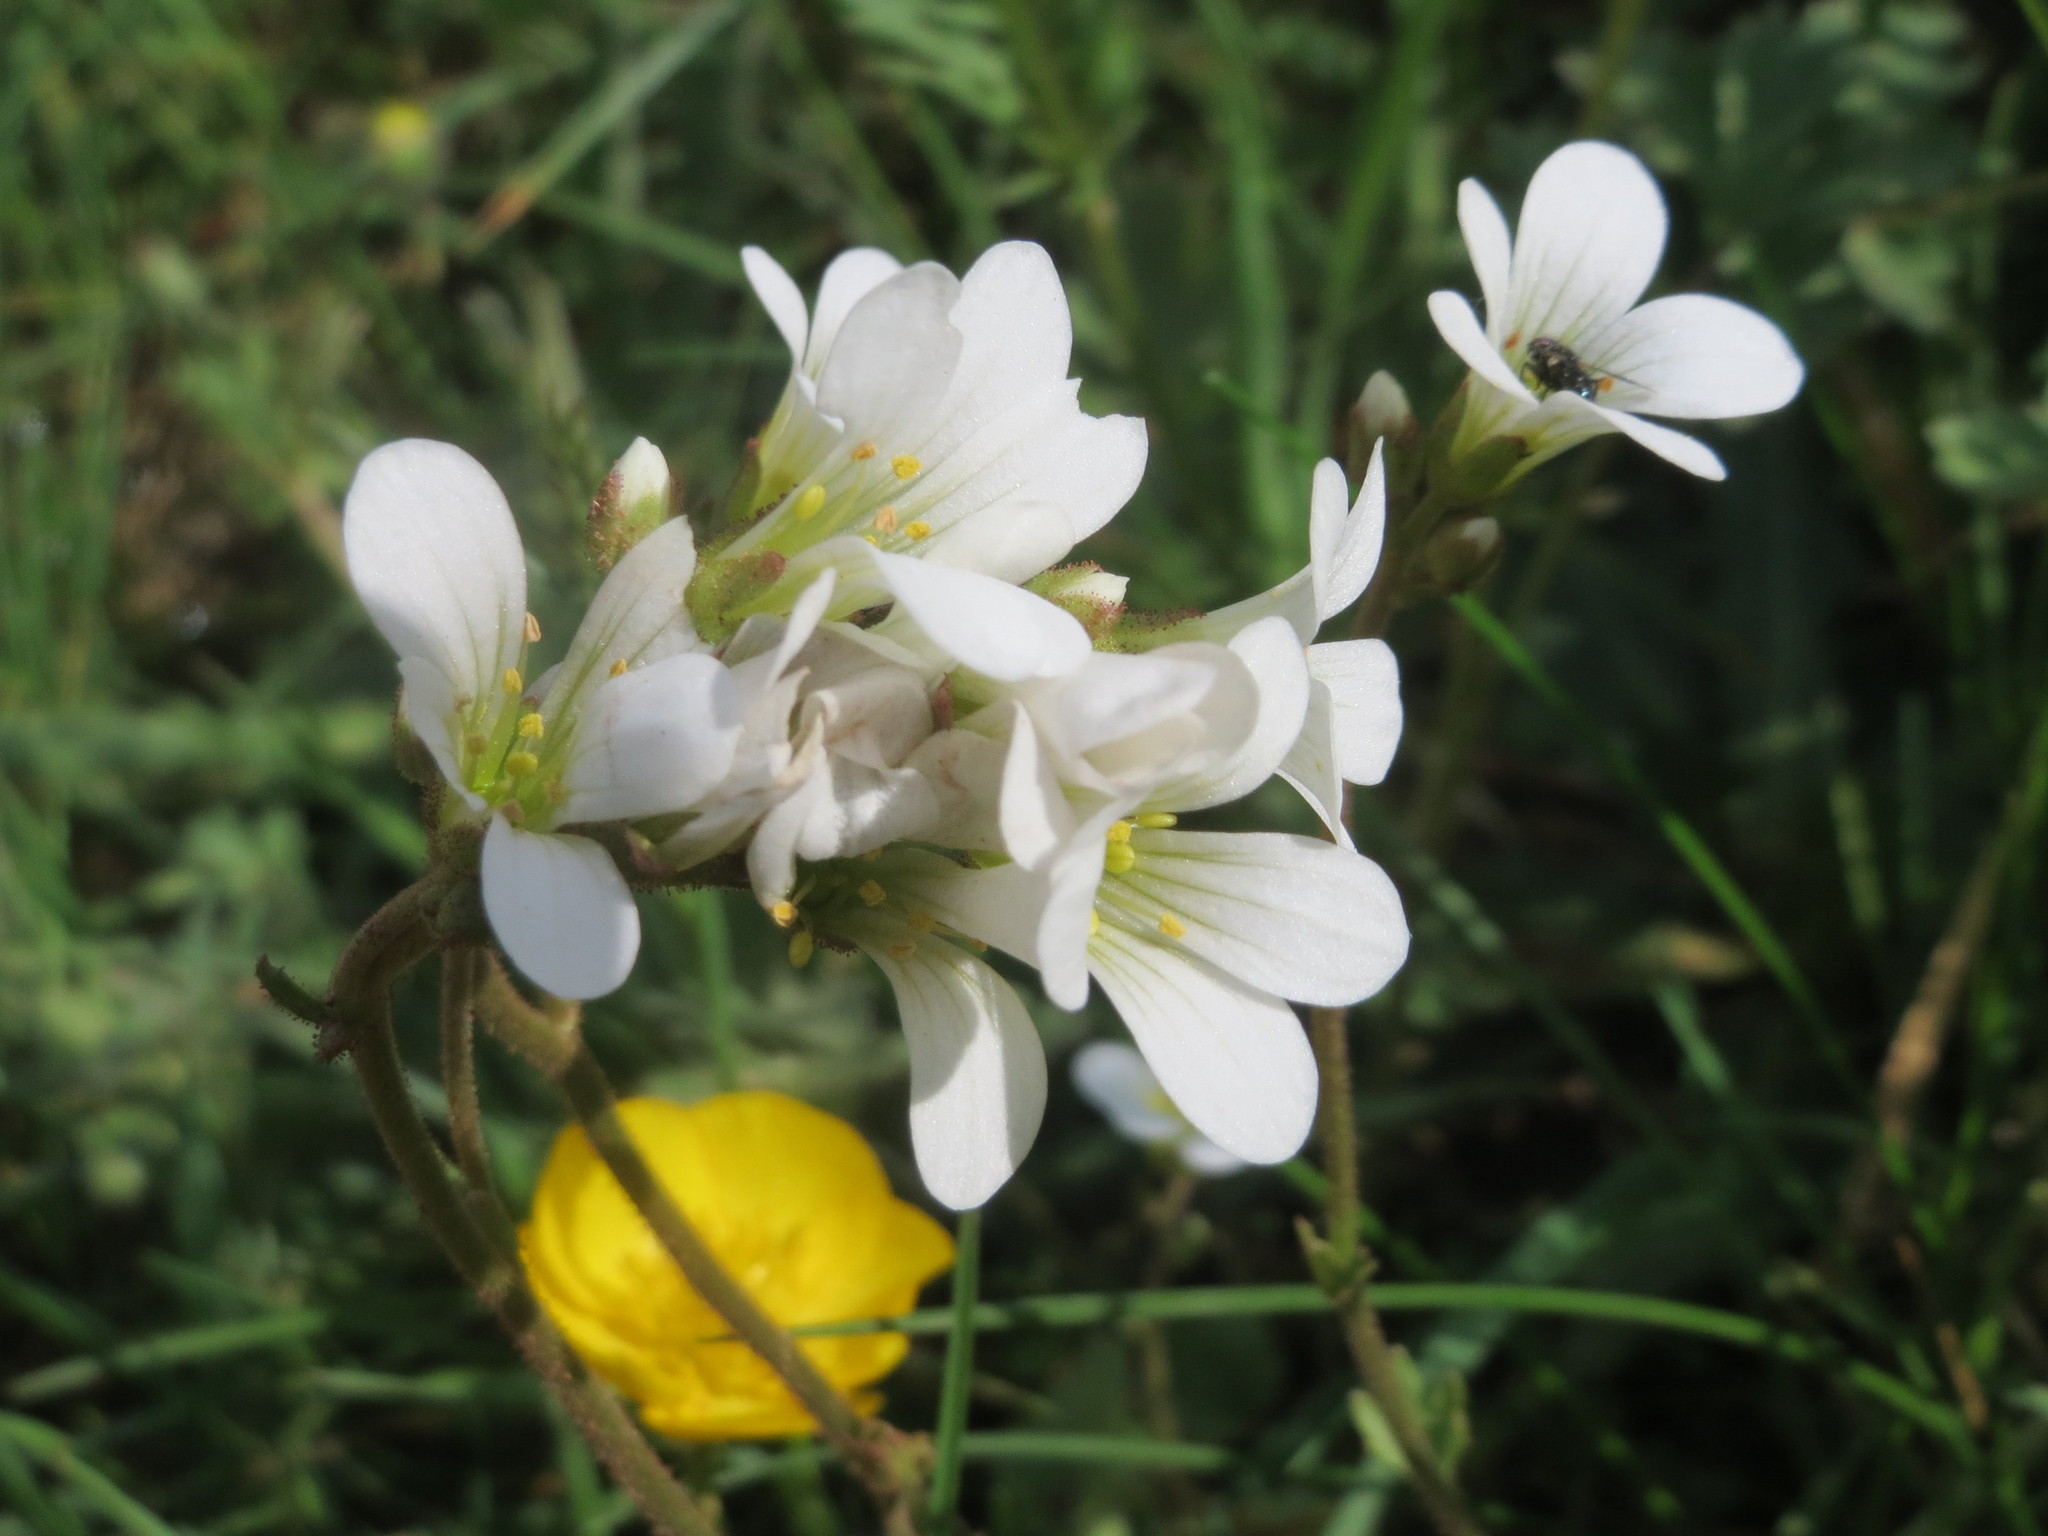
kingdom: Plantae
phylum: Tracheophyta
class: Magnoliopsida
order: Saxifragales
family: Saxifragaceae
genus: Saxifraga
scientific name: Saxifraga granulata
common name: Meadow saxifrage
